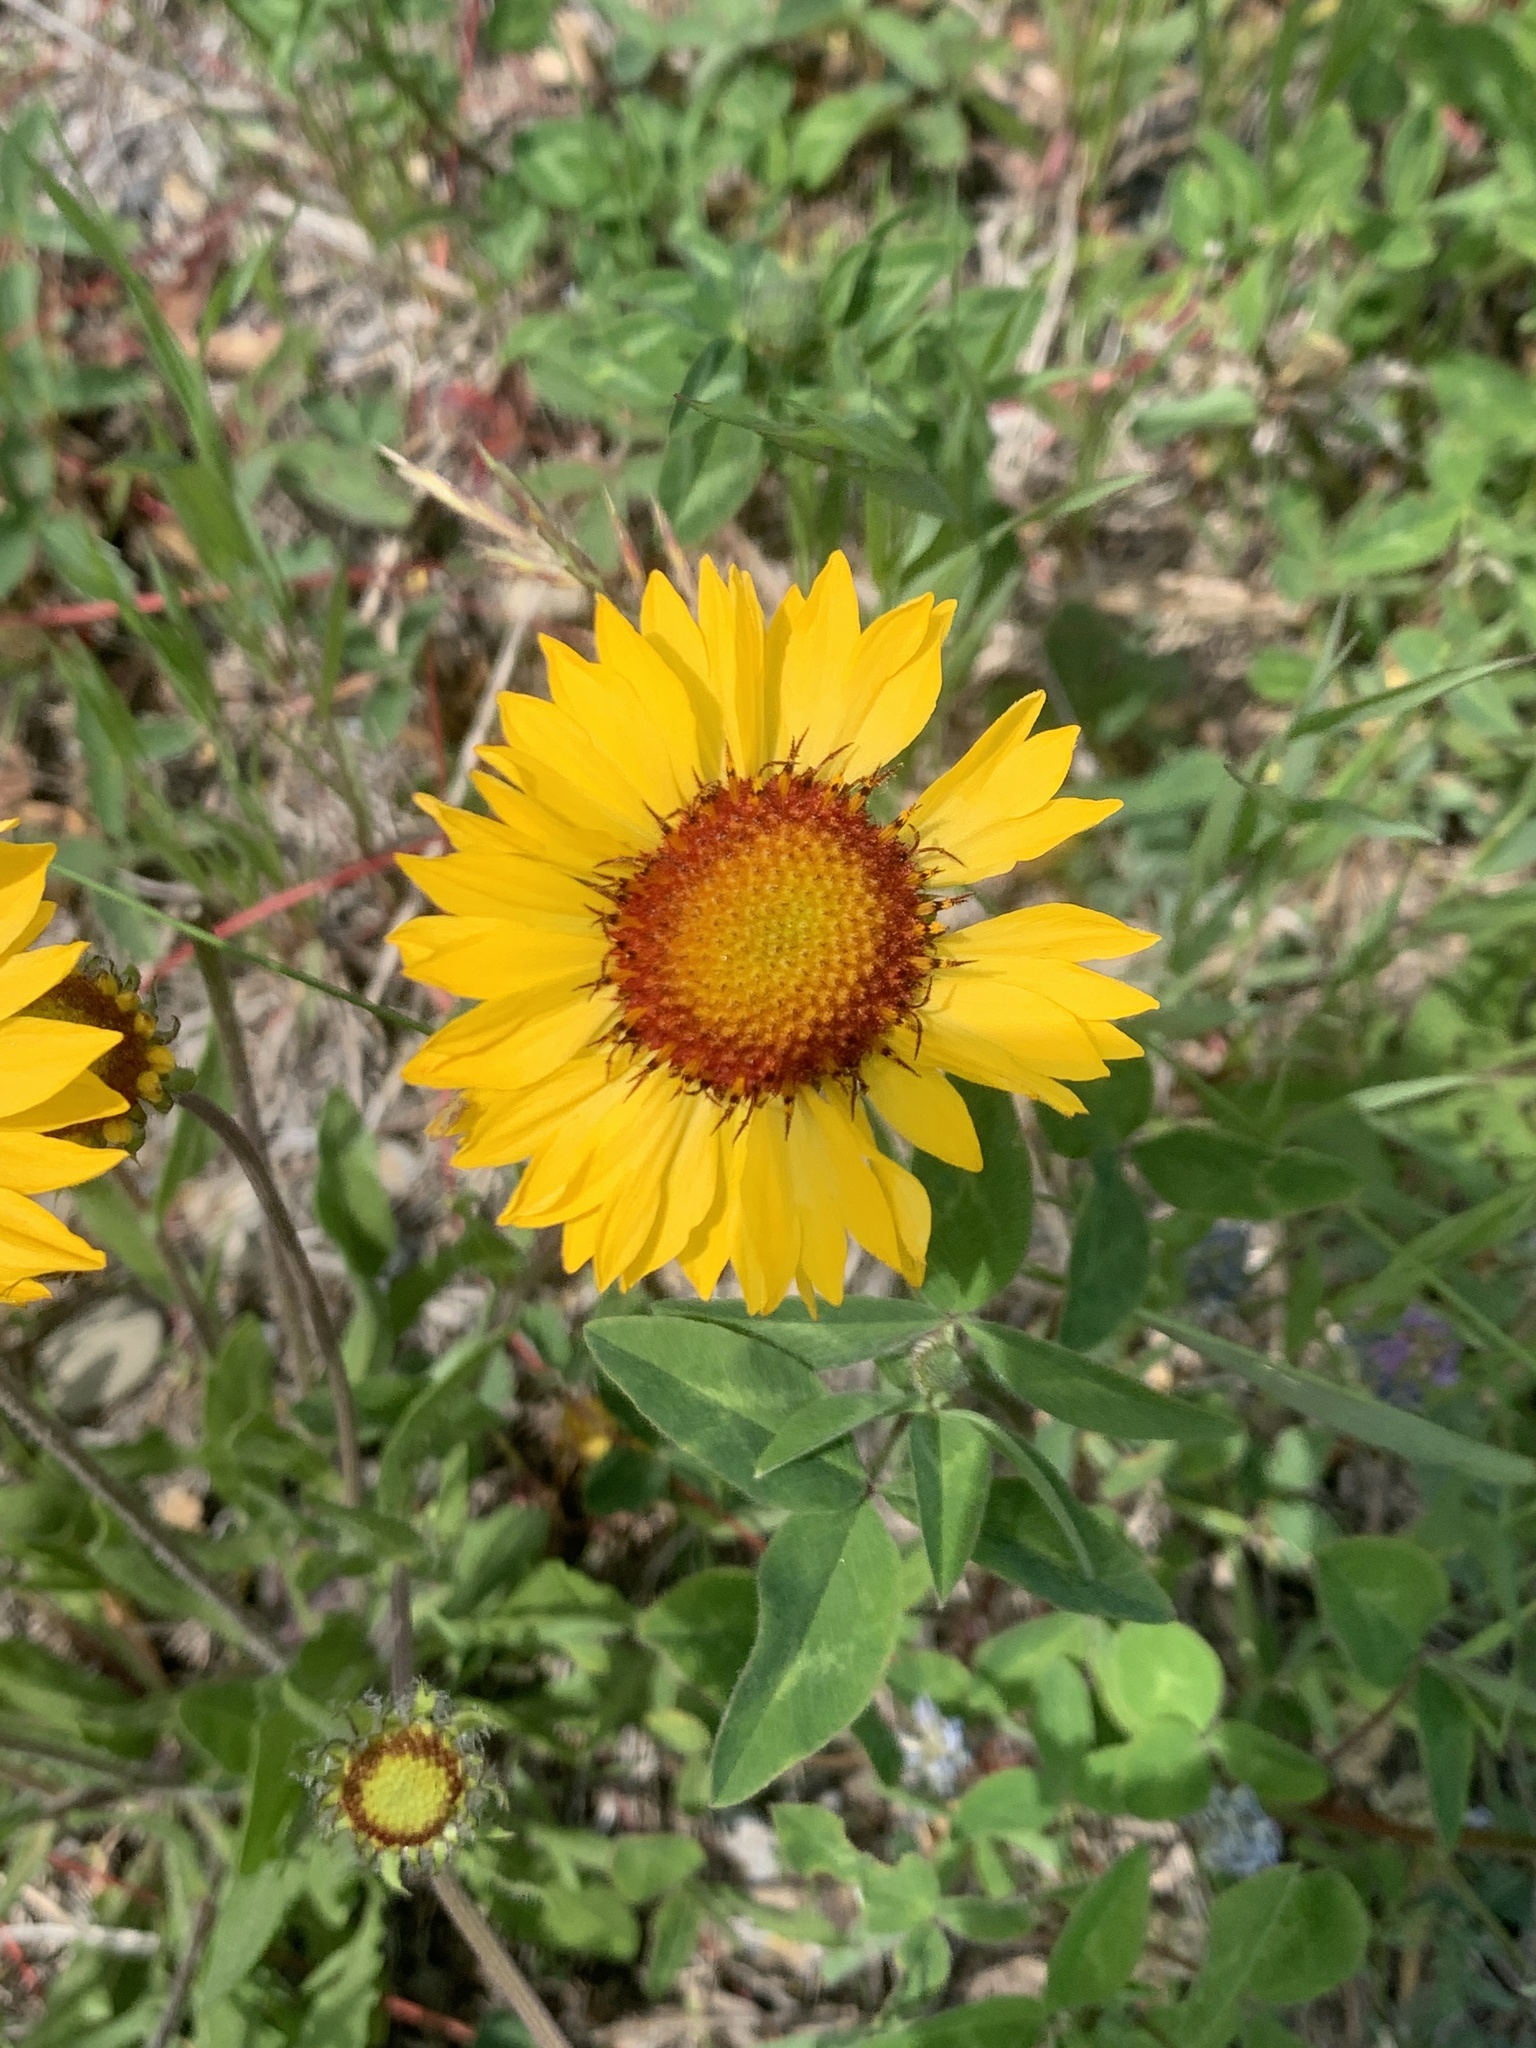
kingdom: Plantae
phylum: Tracheophyta
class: Magnoliopsida
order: Asterales
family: Asteraceae
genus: Gaillardia
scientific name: Gaillardia aristata
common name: Blanket-flower
